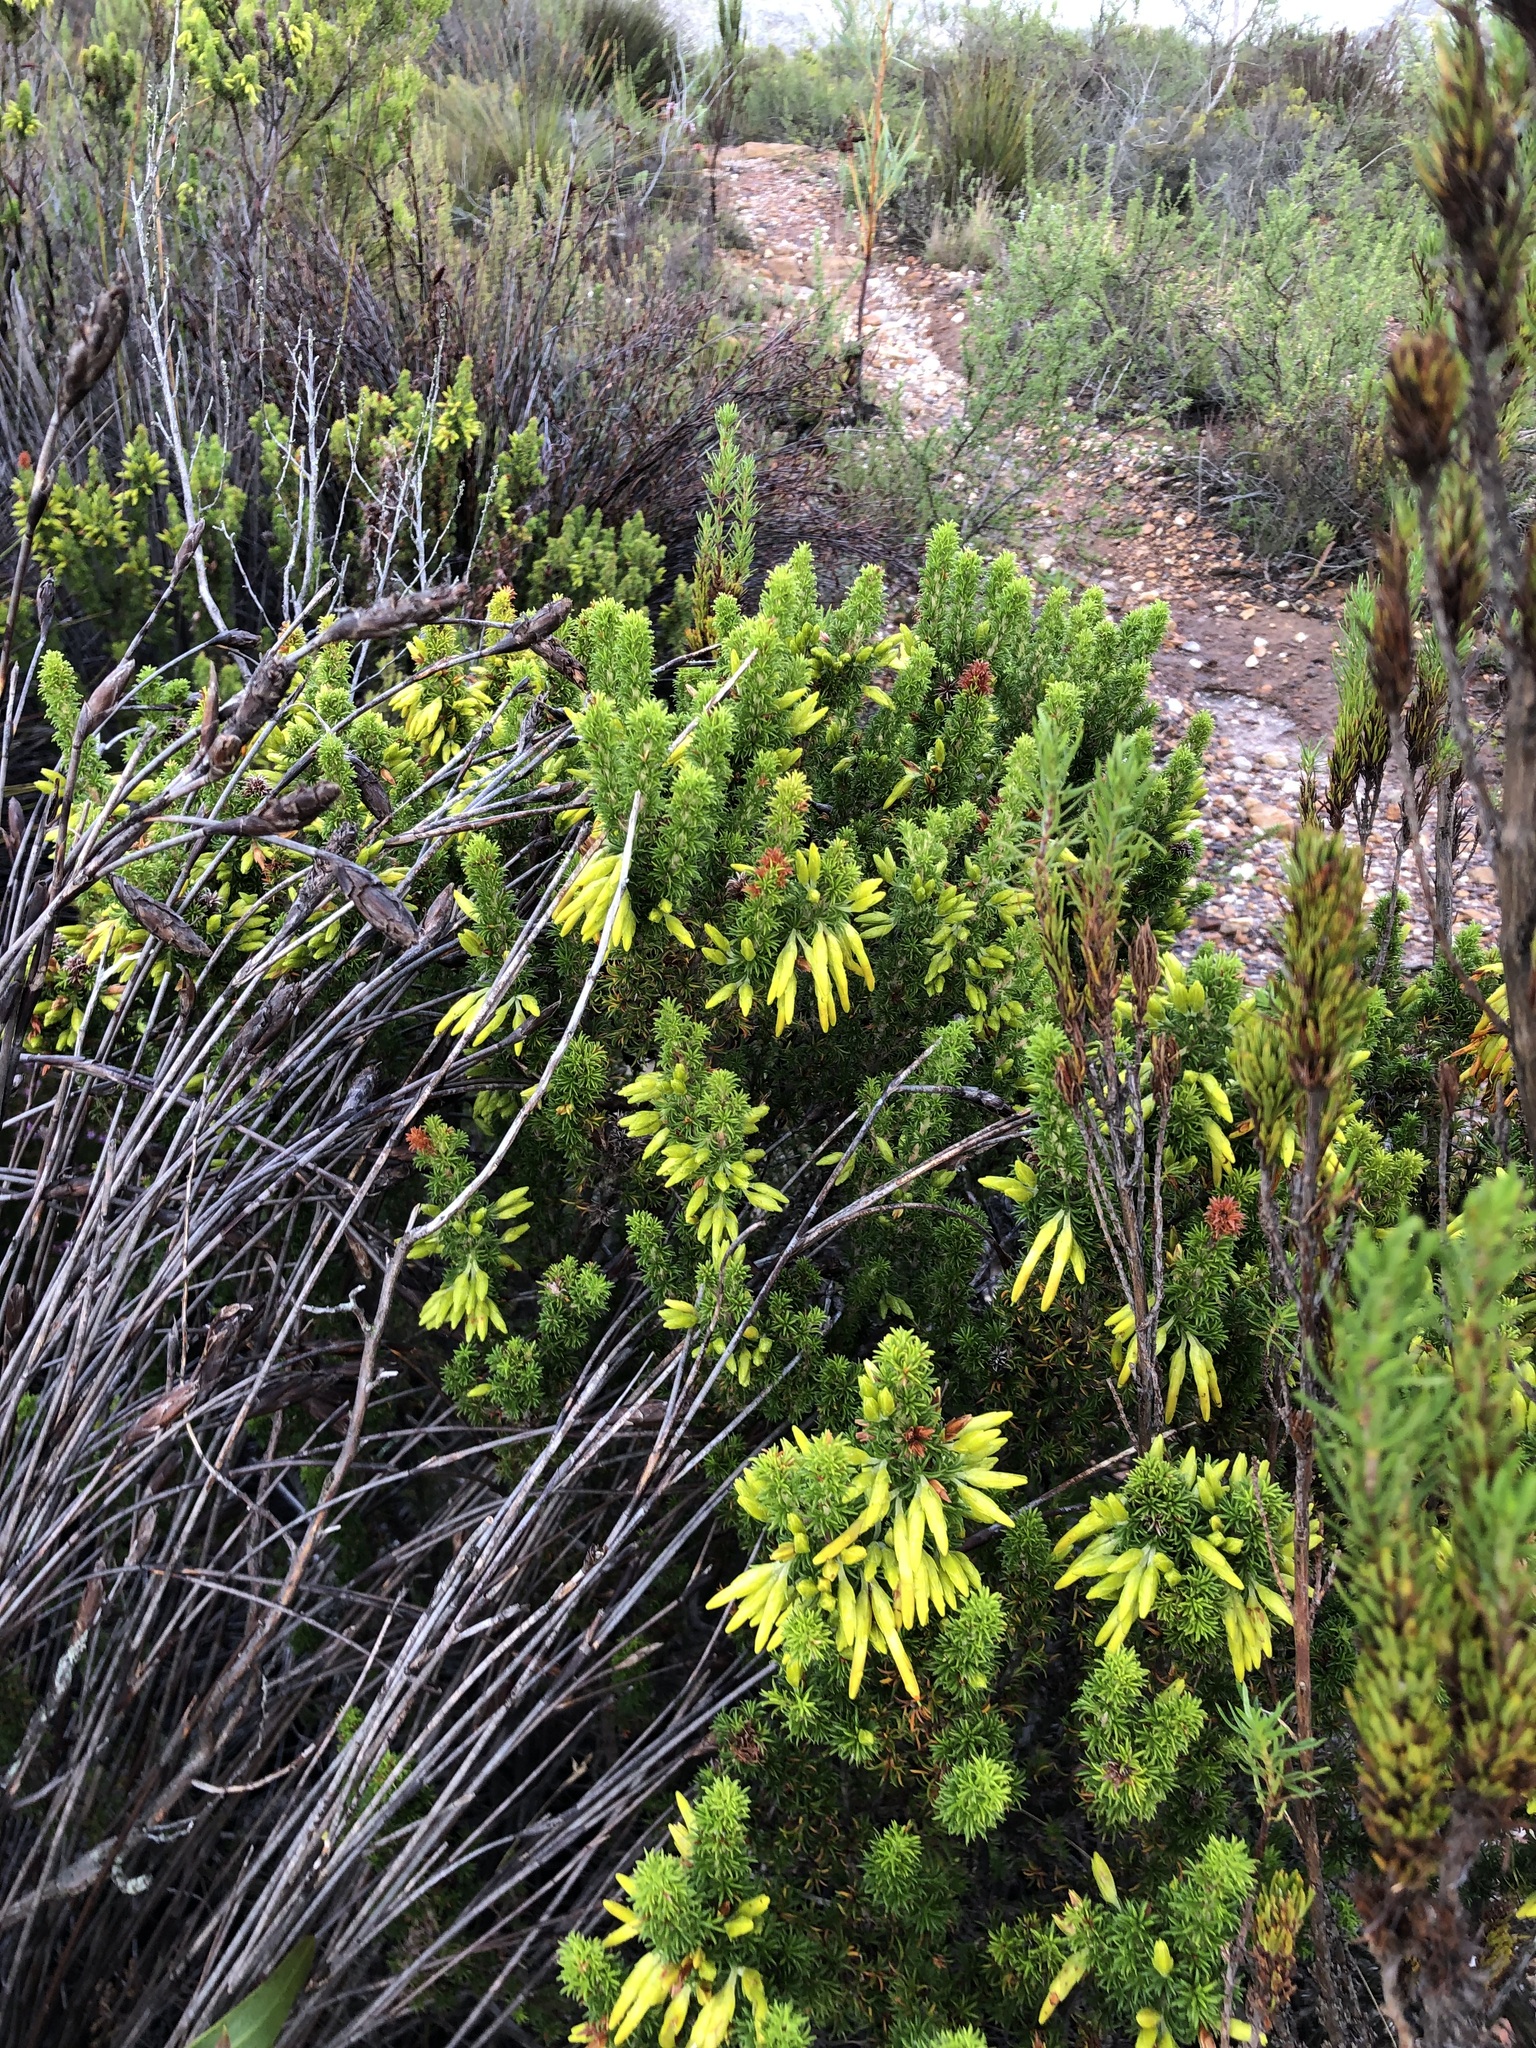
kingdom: Plantae
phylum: Tracheophyta
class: Magnoliopsida
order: Ericales
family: Ericaceae
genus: Erica
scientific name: Erica coccinea
